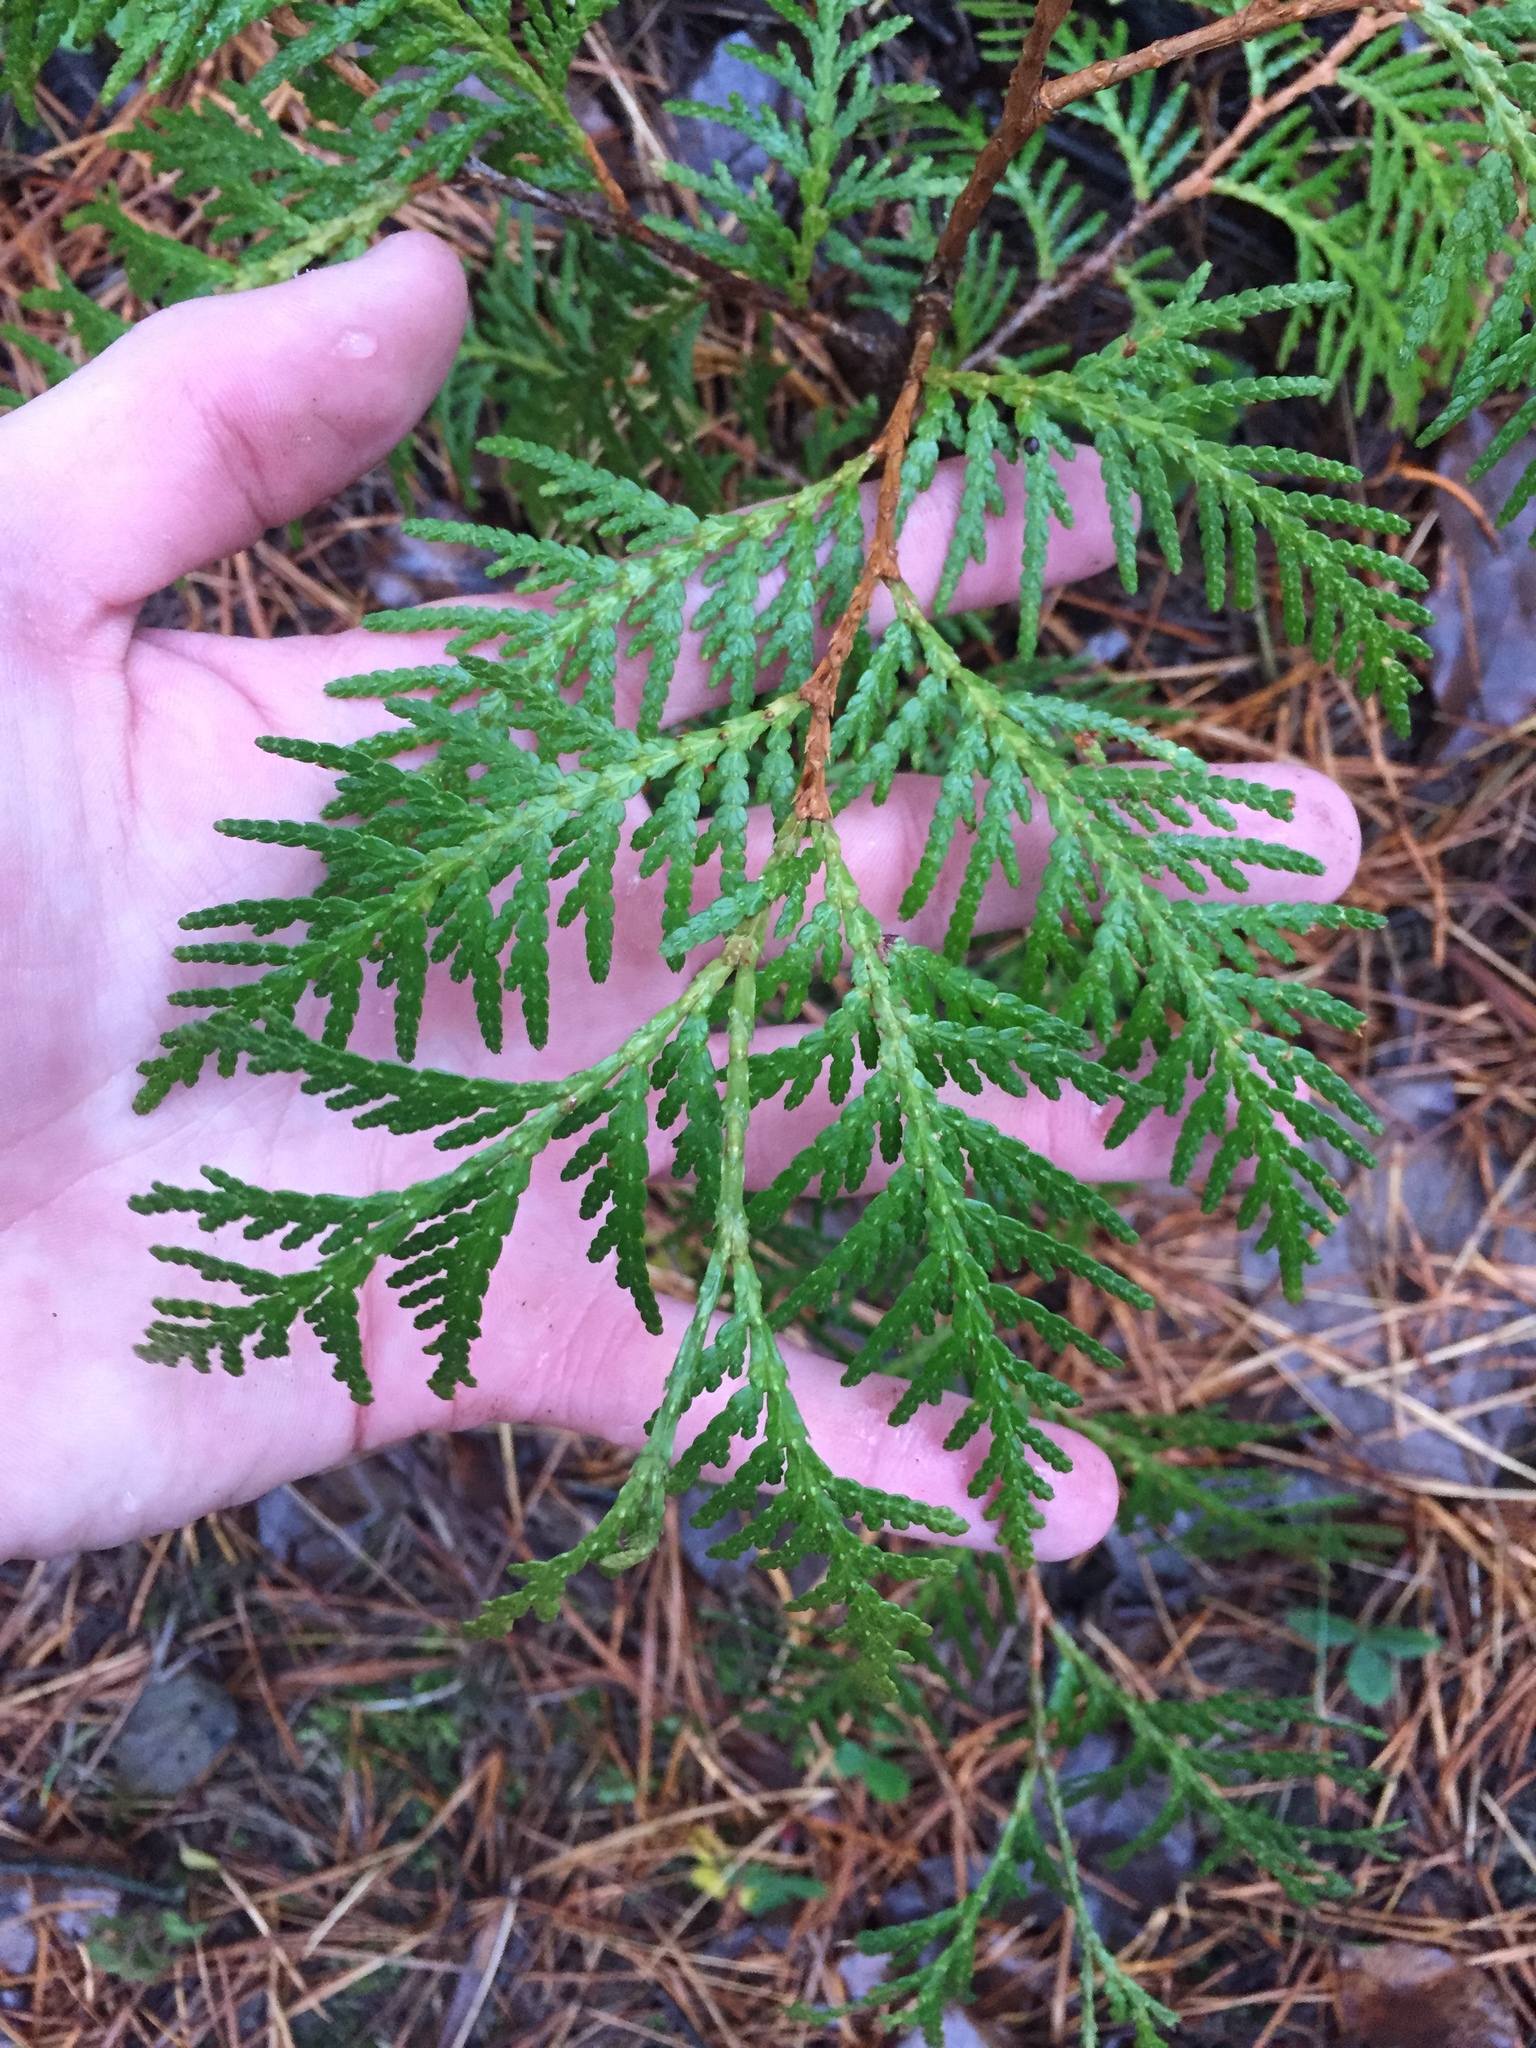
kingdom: Plantae
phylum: Tracheophyta
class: Pinopsida
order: Pinales
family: Cupressaceae
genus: Thuja
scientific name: Thuja occidentalis
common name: Northern white-cedar
